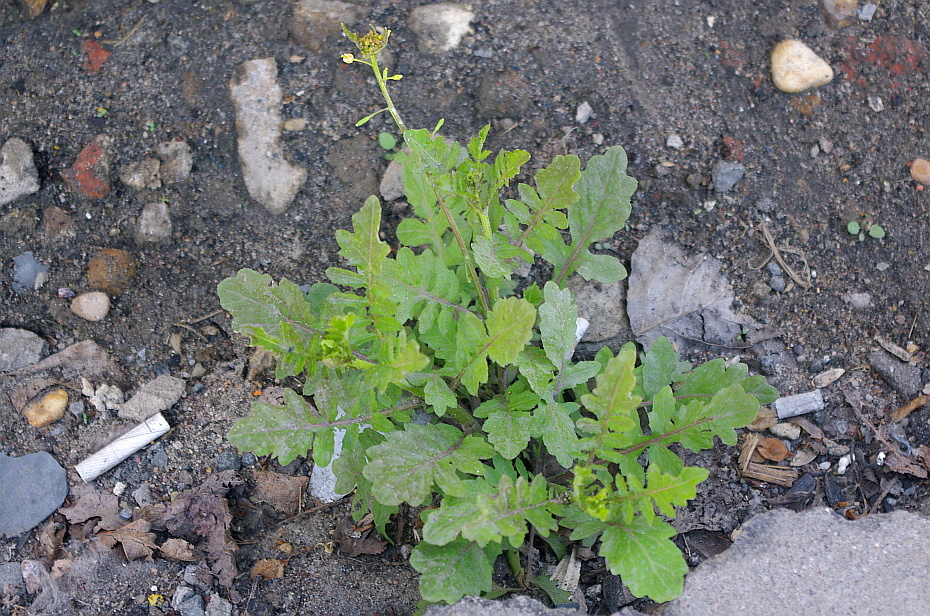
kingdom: Plantae
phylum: Tracheophyta
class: Magnoliopsida
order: Brassicales
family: Brassicaceae
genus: Rorippa
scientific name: Rorippa palustris
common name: Marsh yellow-cress
